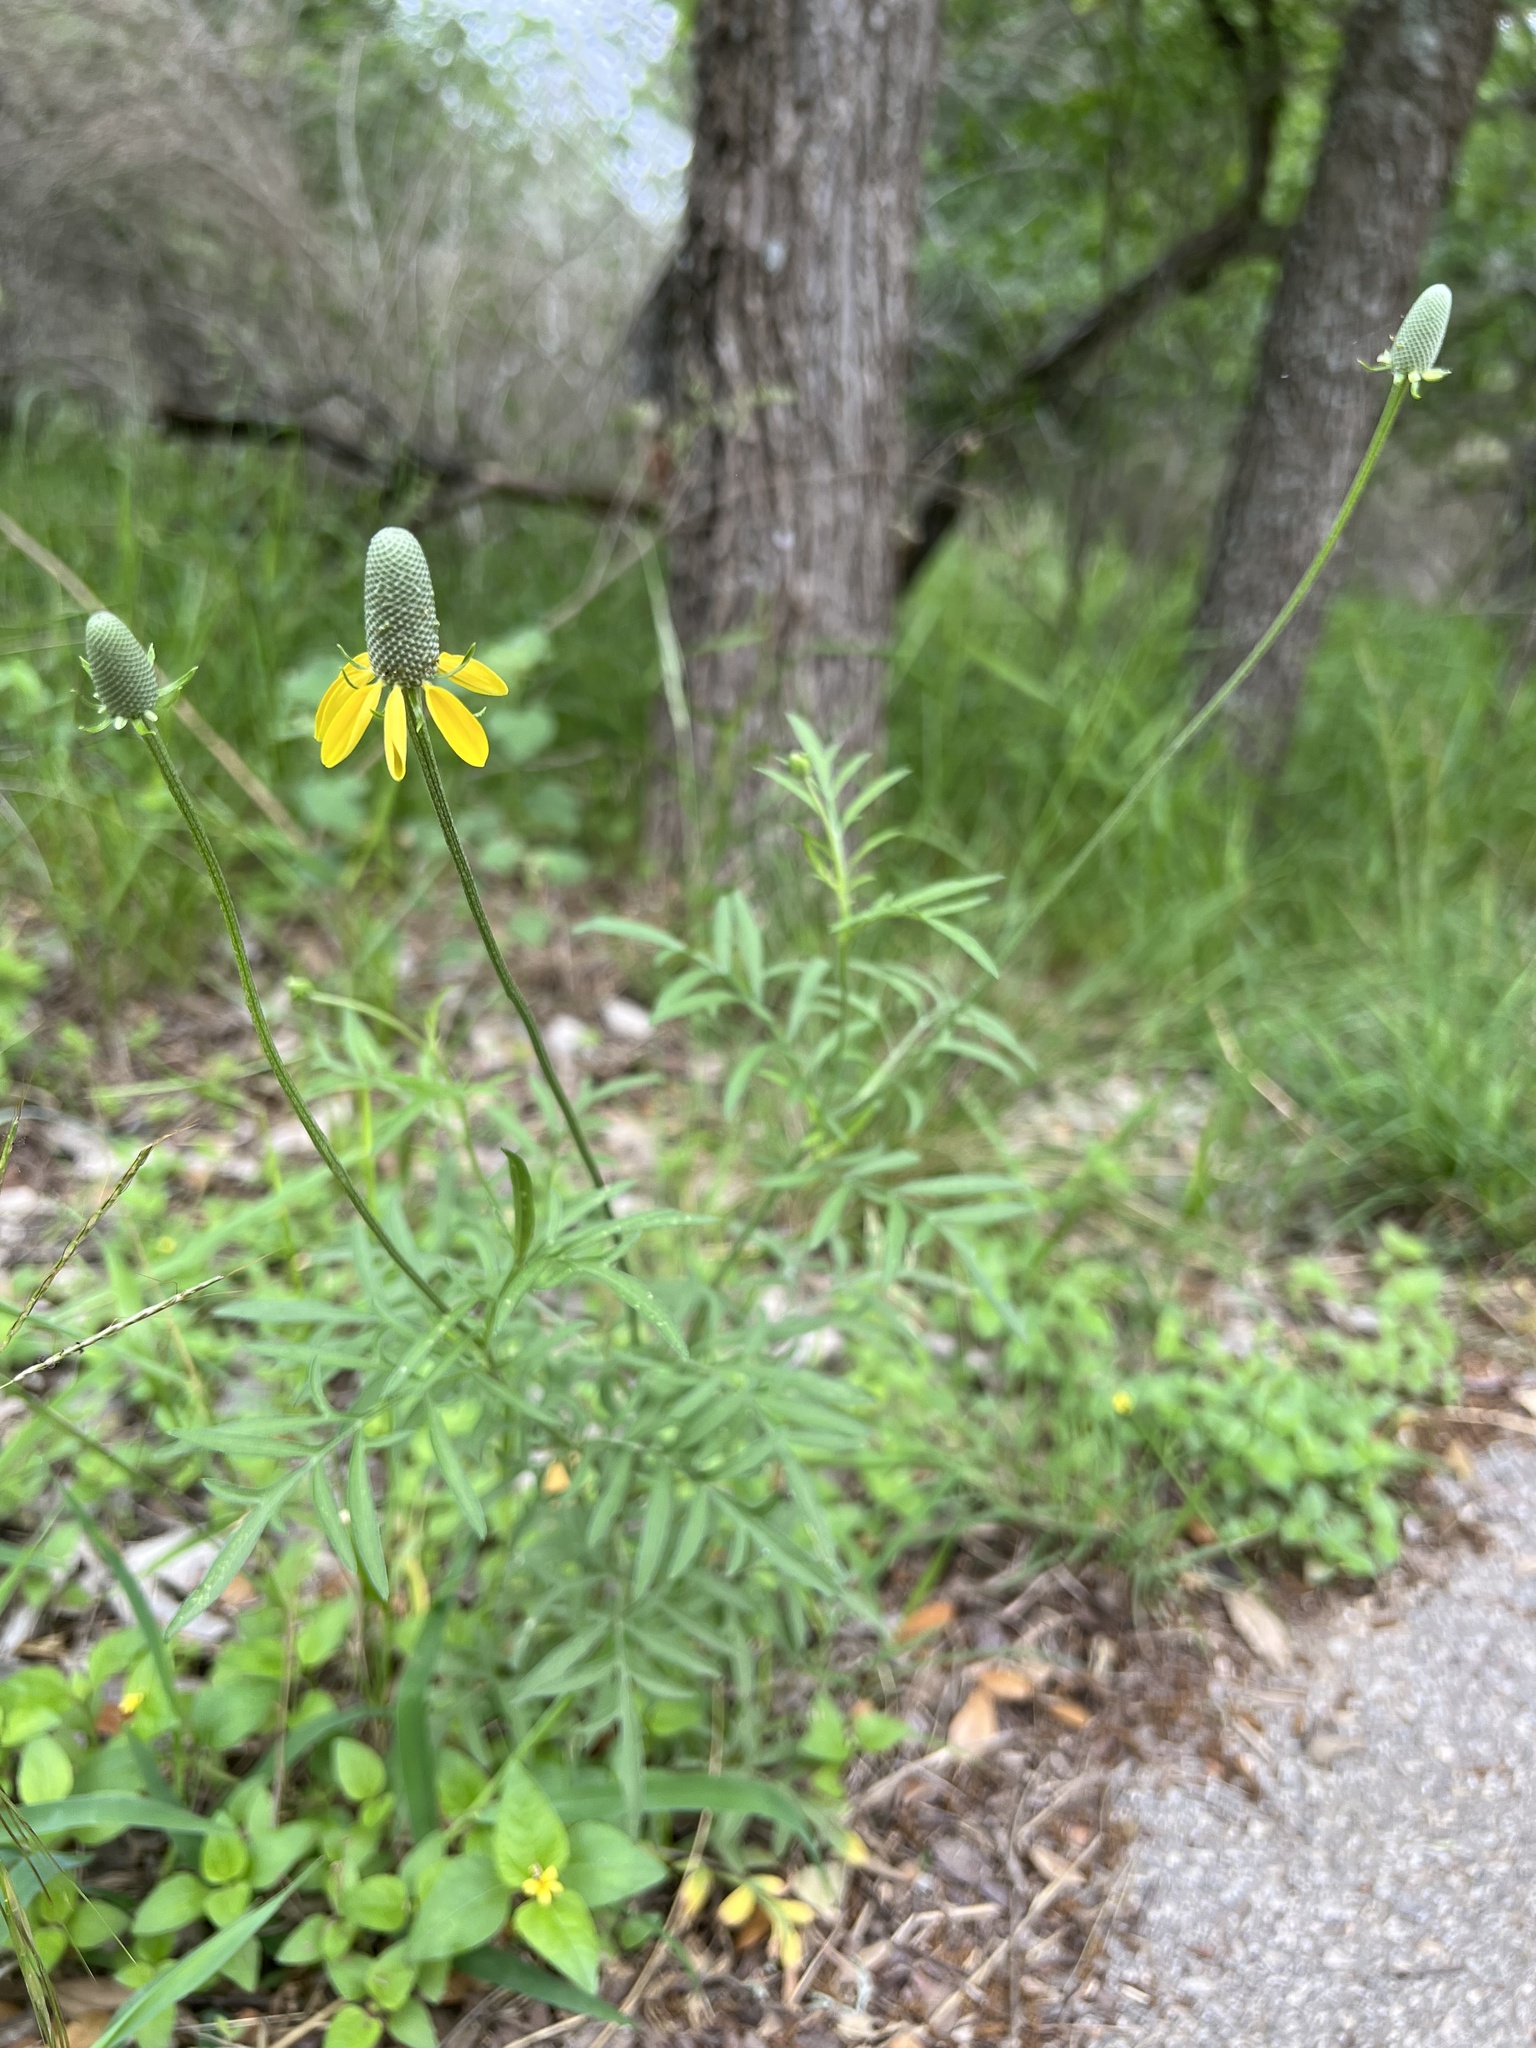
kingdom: Plantae
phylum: Tracheophyta
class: Magnoliopsida
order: Asterales
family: Asteraceae
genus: Ratibida
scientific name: Ratibida columnifera
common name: Prairie coneflower
